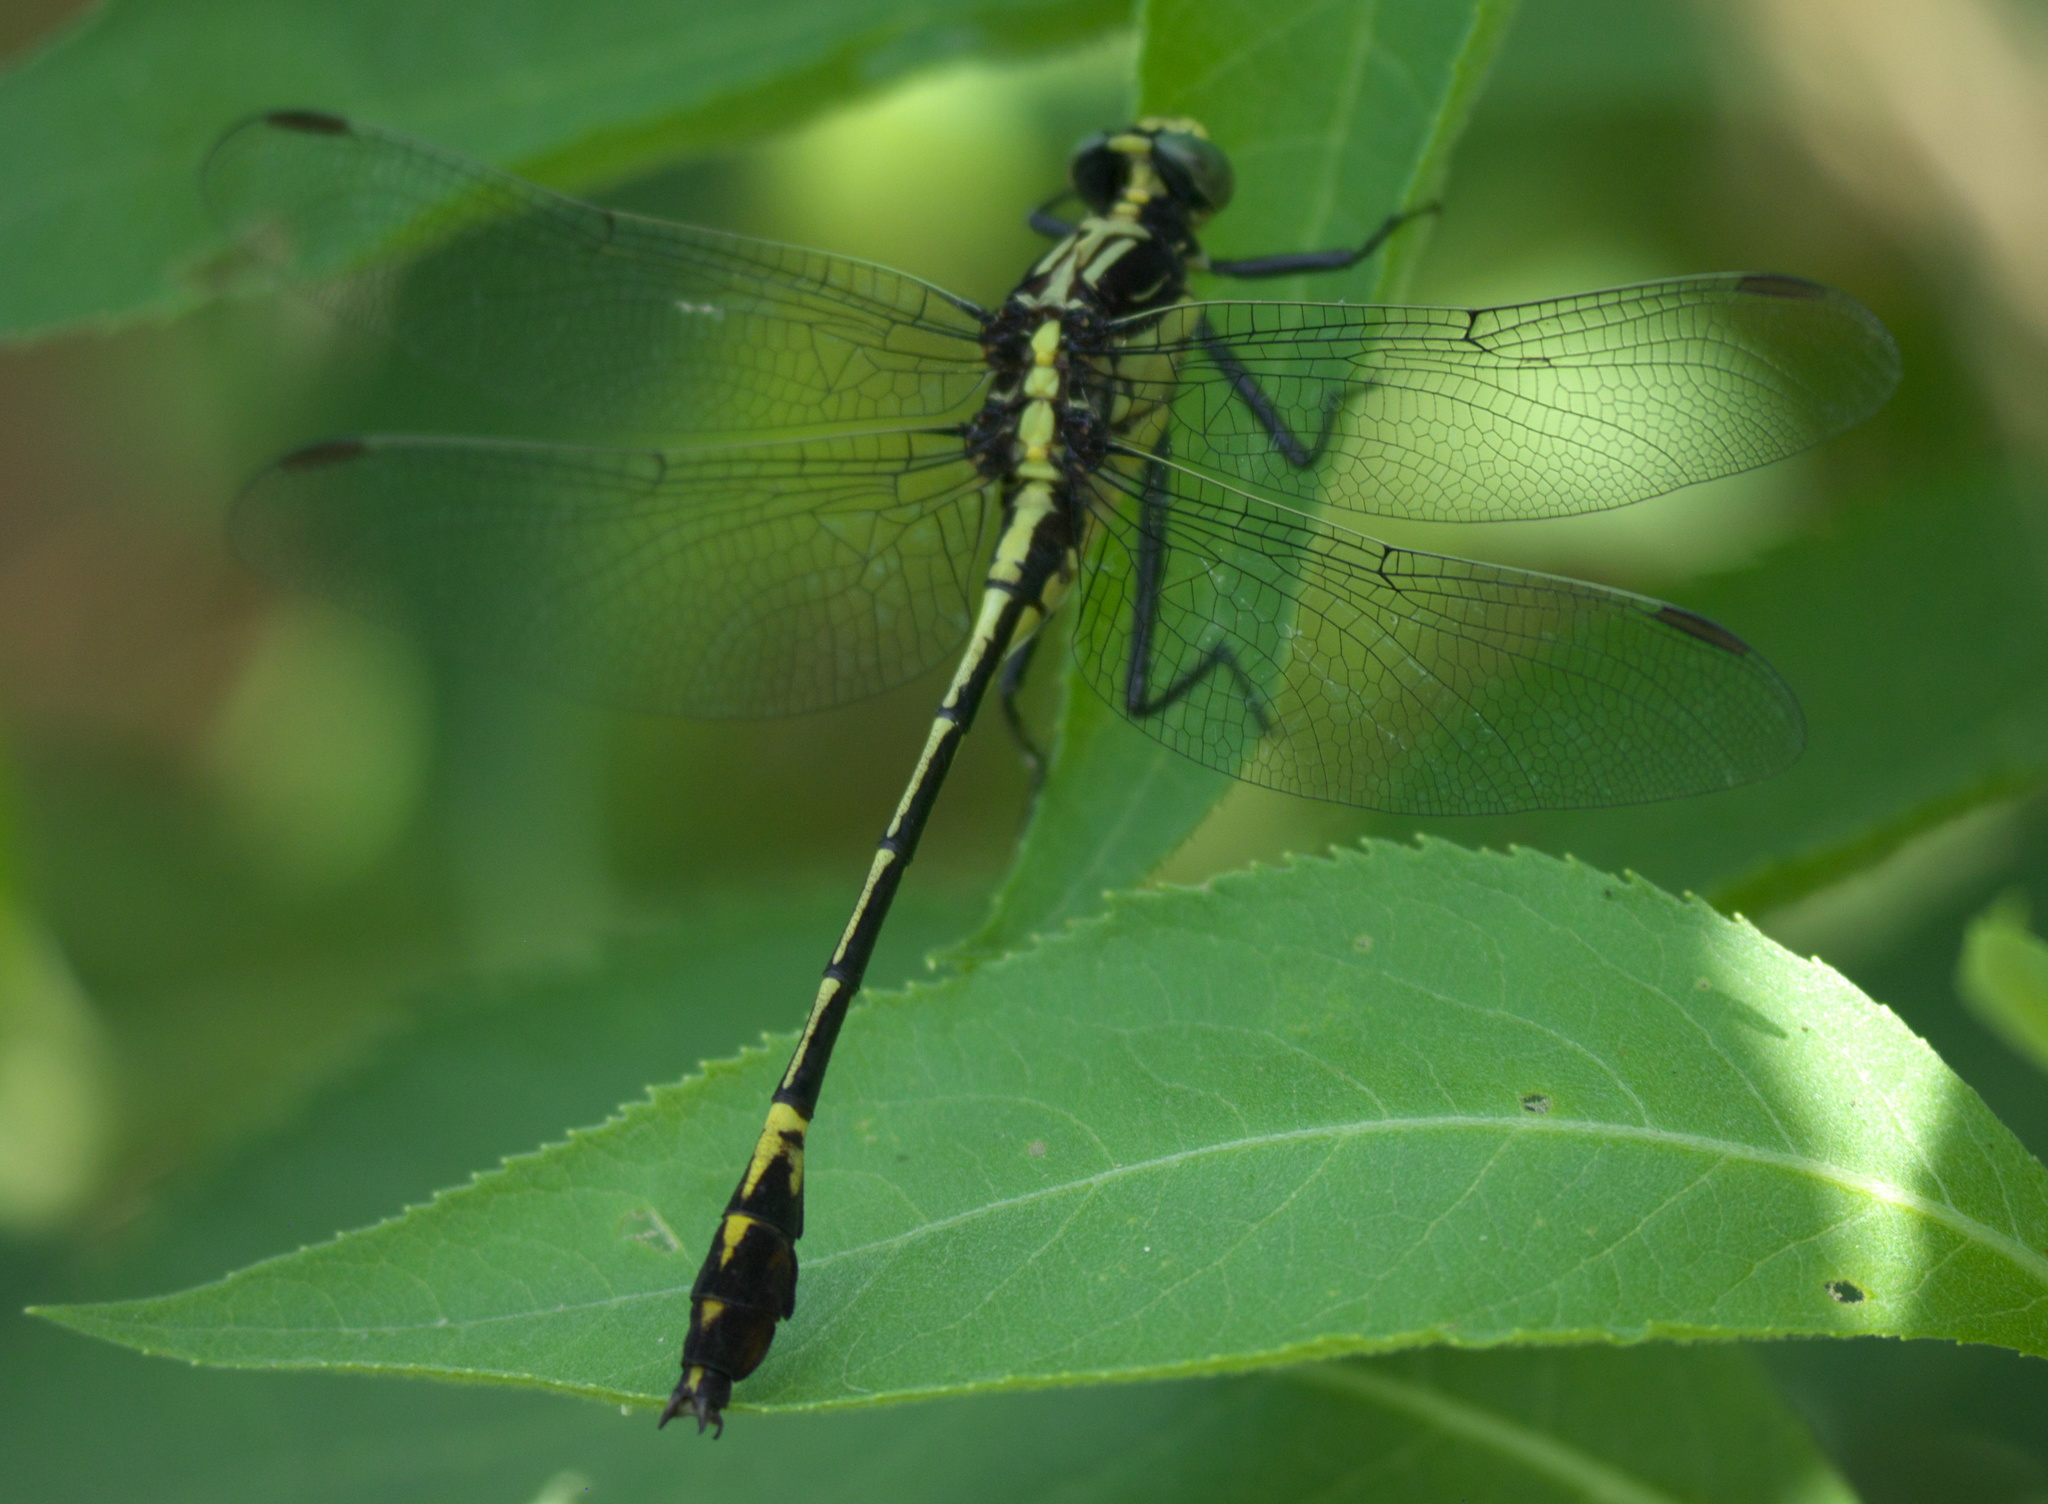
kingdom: Animalia
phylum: Arthropoda
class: Insecta
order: Odonata
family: Gomphidae
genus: Dromogomphus
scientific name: Dromogomphus spinosus
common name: Black-shouldered spinyleg
